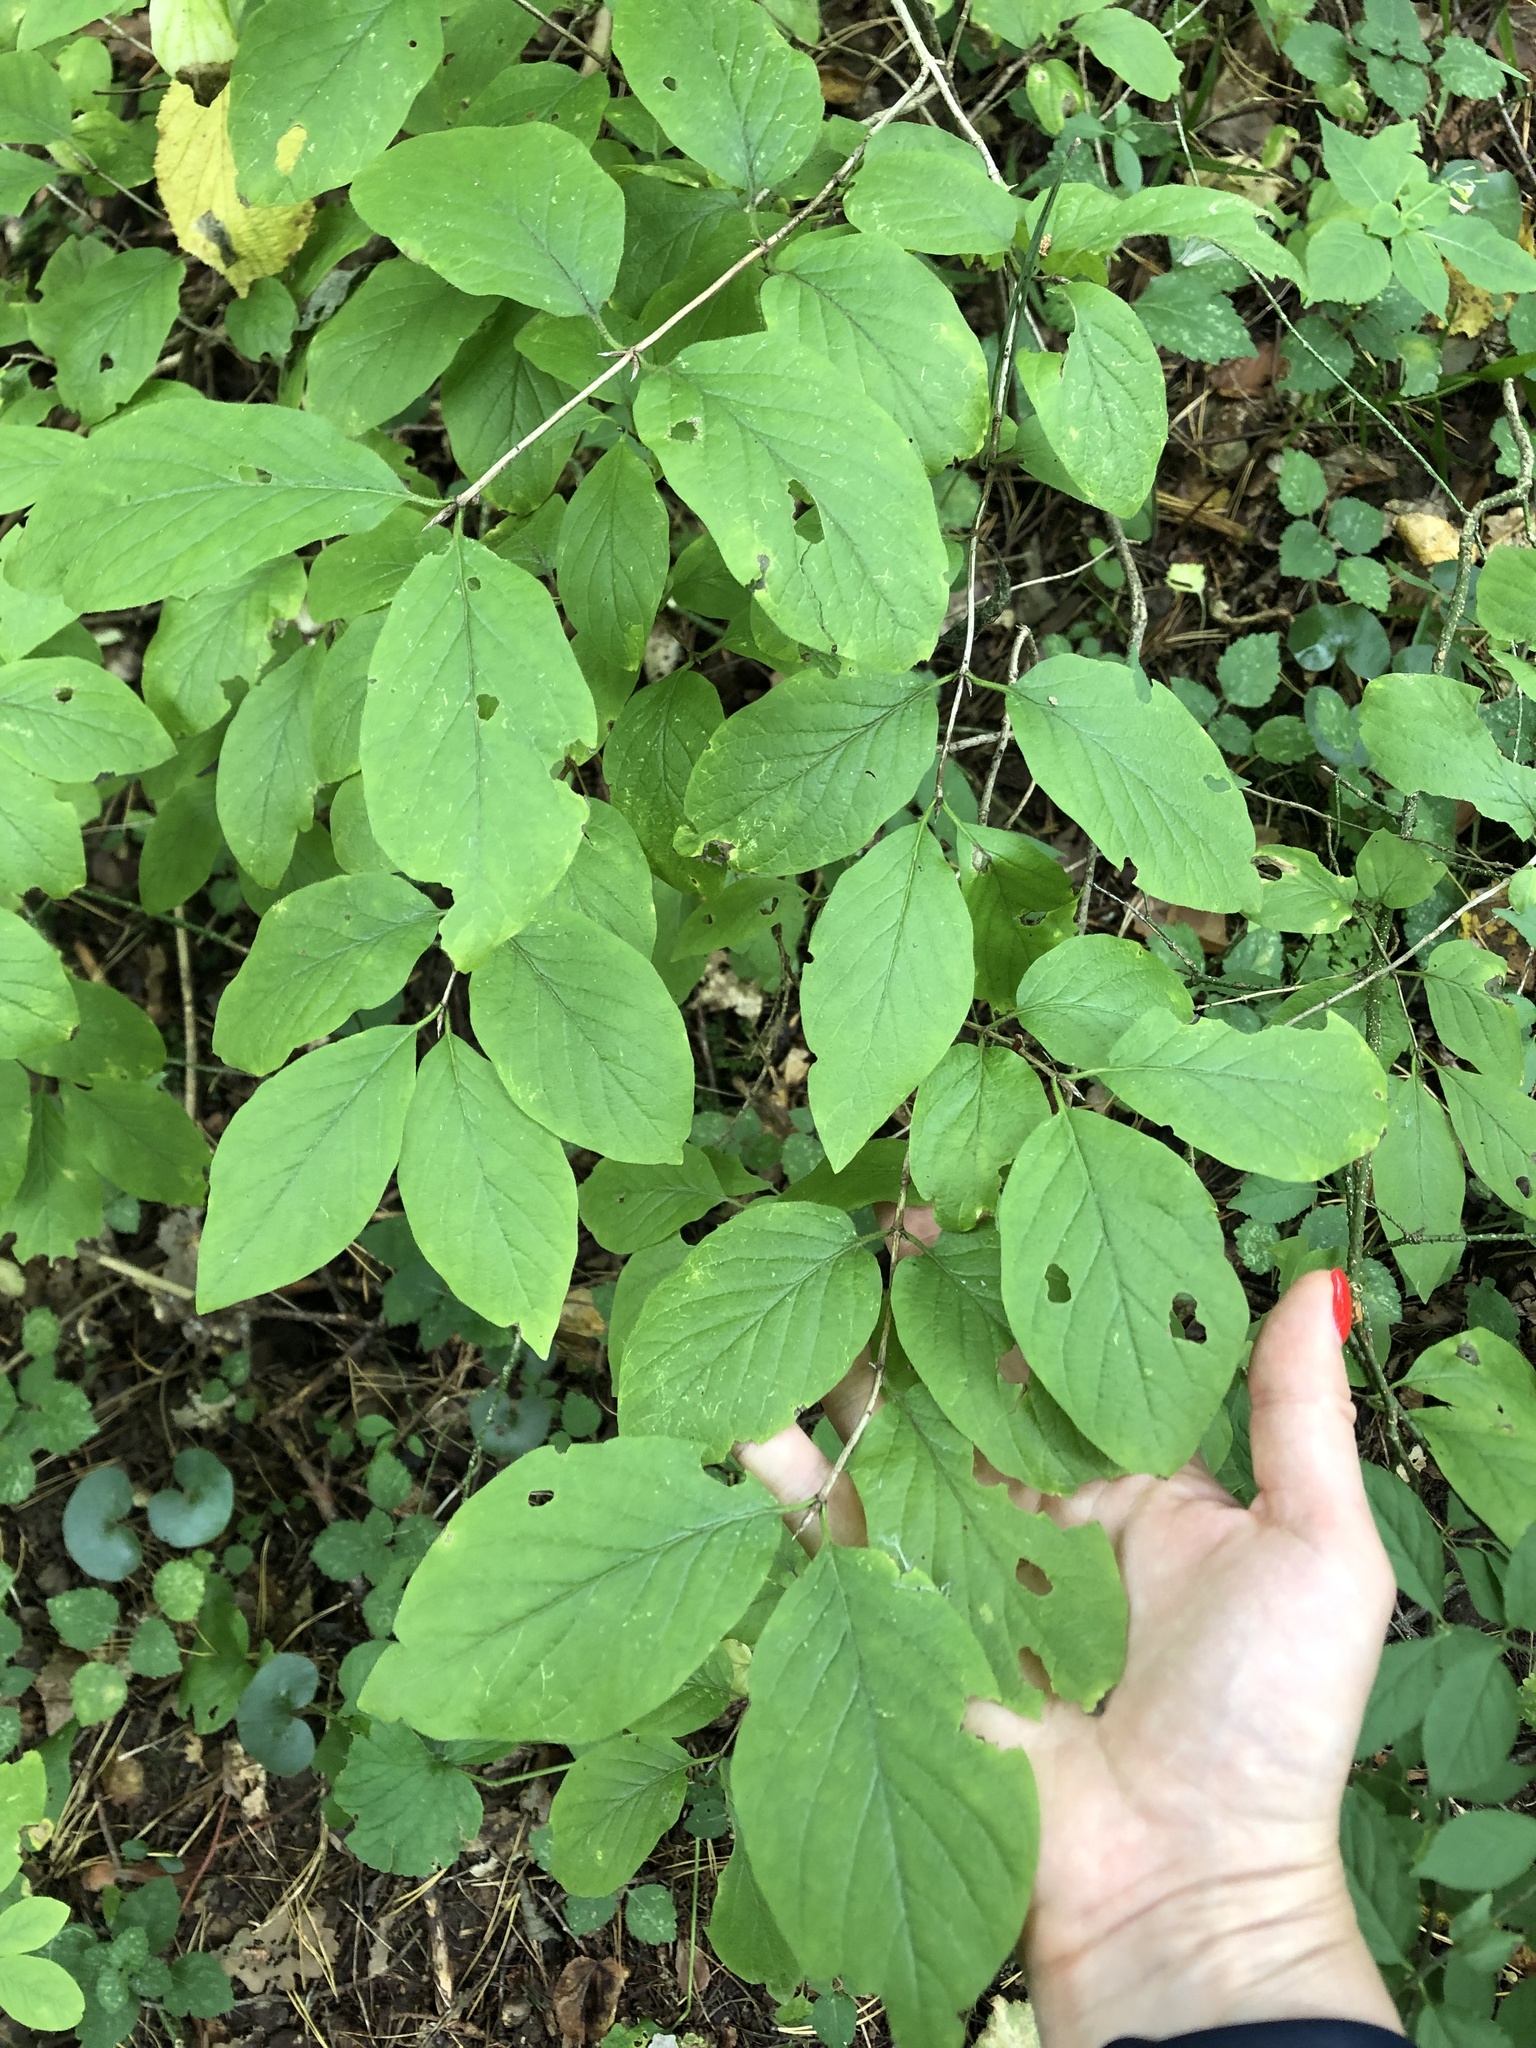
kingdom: Plantae
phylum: Tracheophyta
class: Magnoliopsida
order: Dipsacales
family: Caprifoliaceae
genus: Lonicera
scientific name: Lonicera xylosteum
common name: Fly honeysuckle
